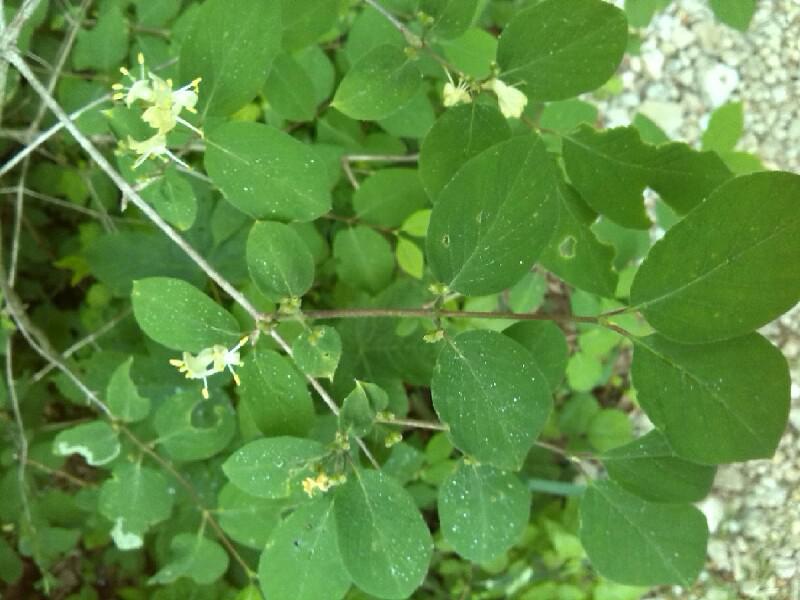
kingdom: Plantae
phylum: Tracheophyta
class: Magnoliopsida
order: Dipsacales
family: Caprifoliaceae
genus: Lonicera
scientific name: Lonicera xylosteum
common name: Fly honeysuckle
